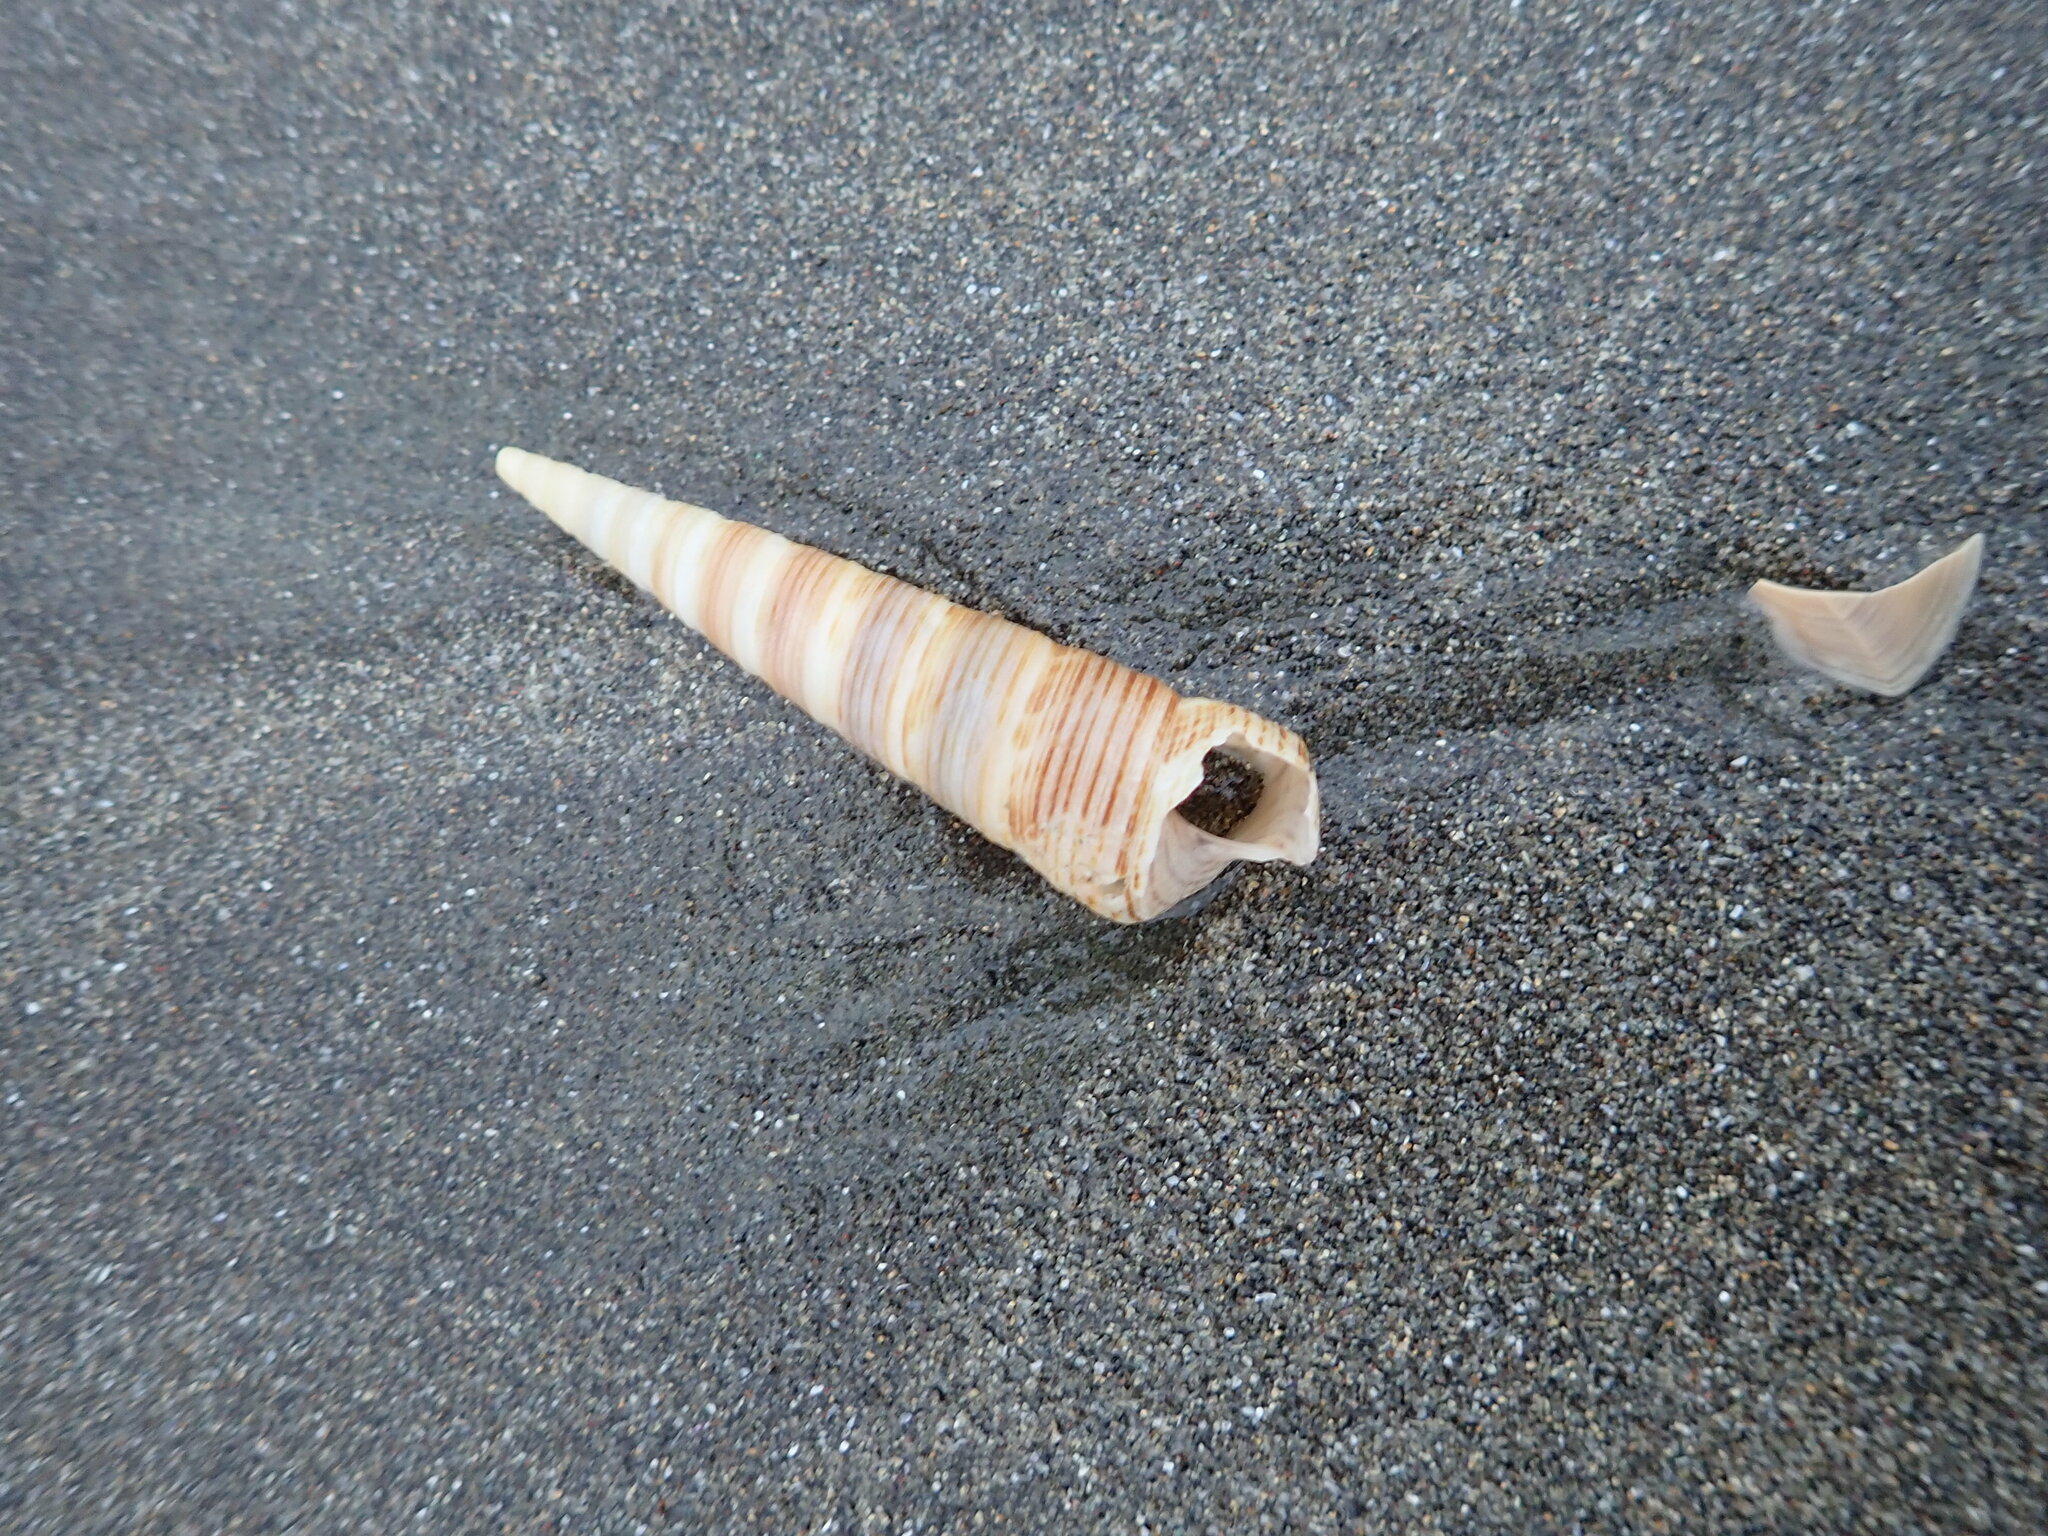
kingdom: Animalia
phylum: Mollusca
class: Gastropoda
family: Turritellidae
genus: Zeacolpus
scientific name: Zeacolpus vittatus
